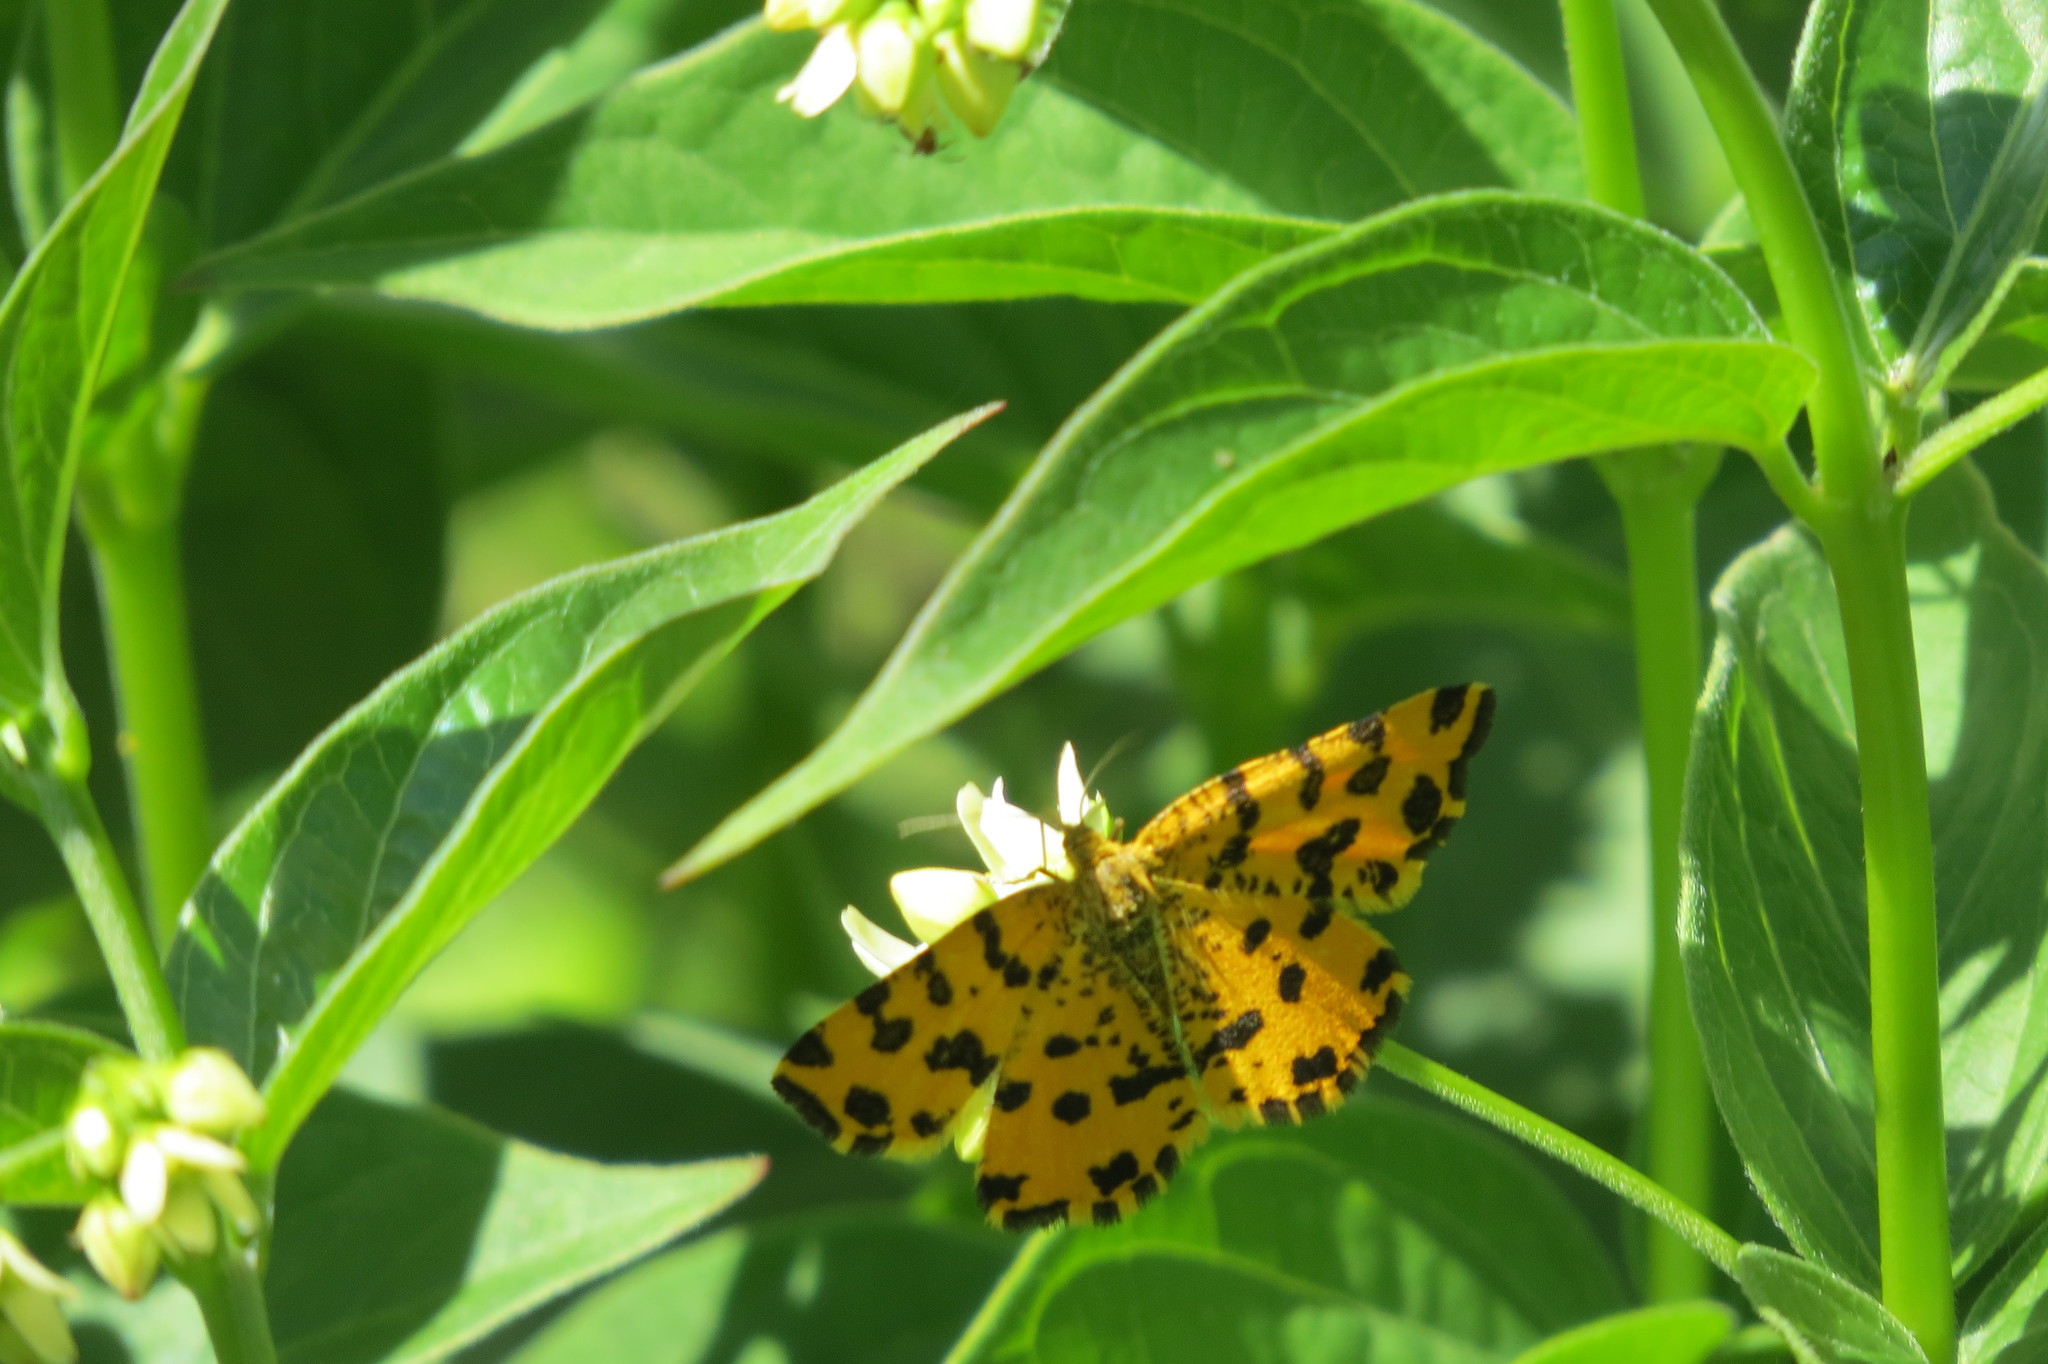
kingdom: Animalia
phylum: Arthropoda
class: Insecta
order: Lepidoptera
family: Geometridae
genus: Pseudopanthera
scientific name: Pseudopanthera macularia
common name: Speckled yellow
